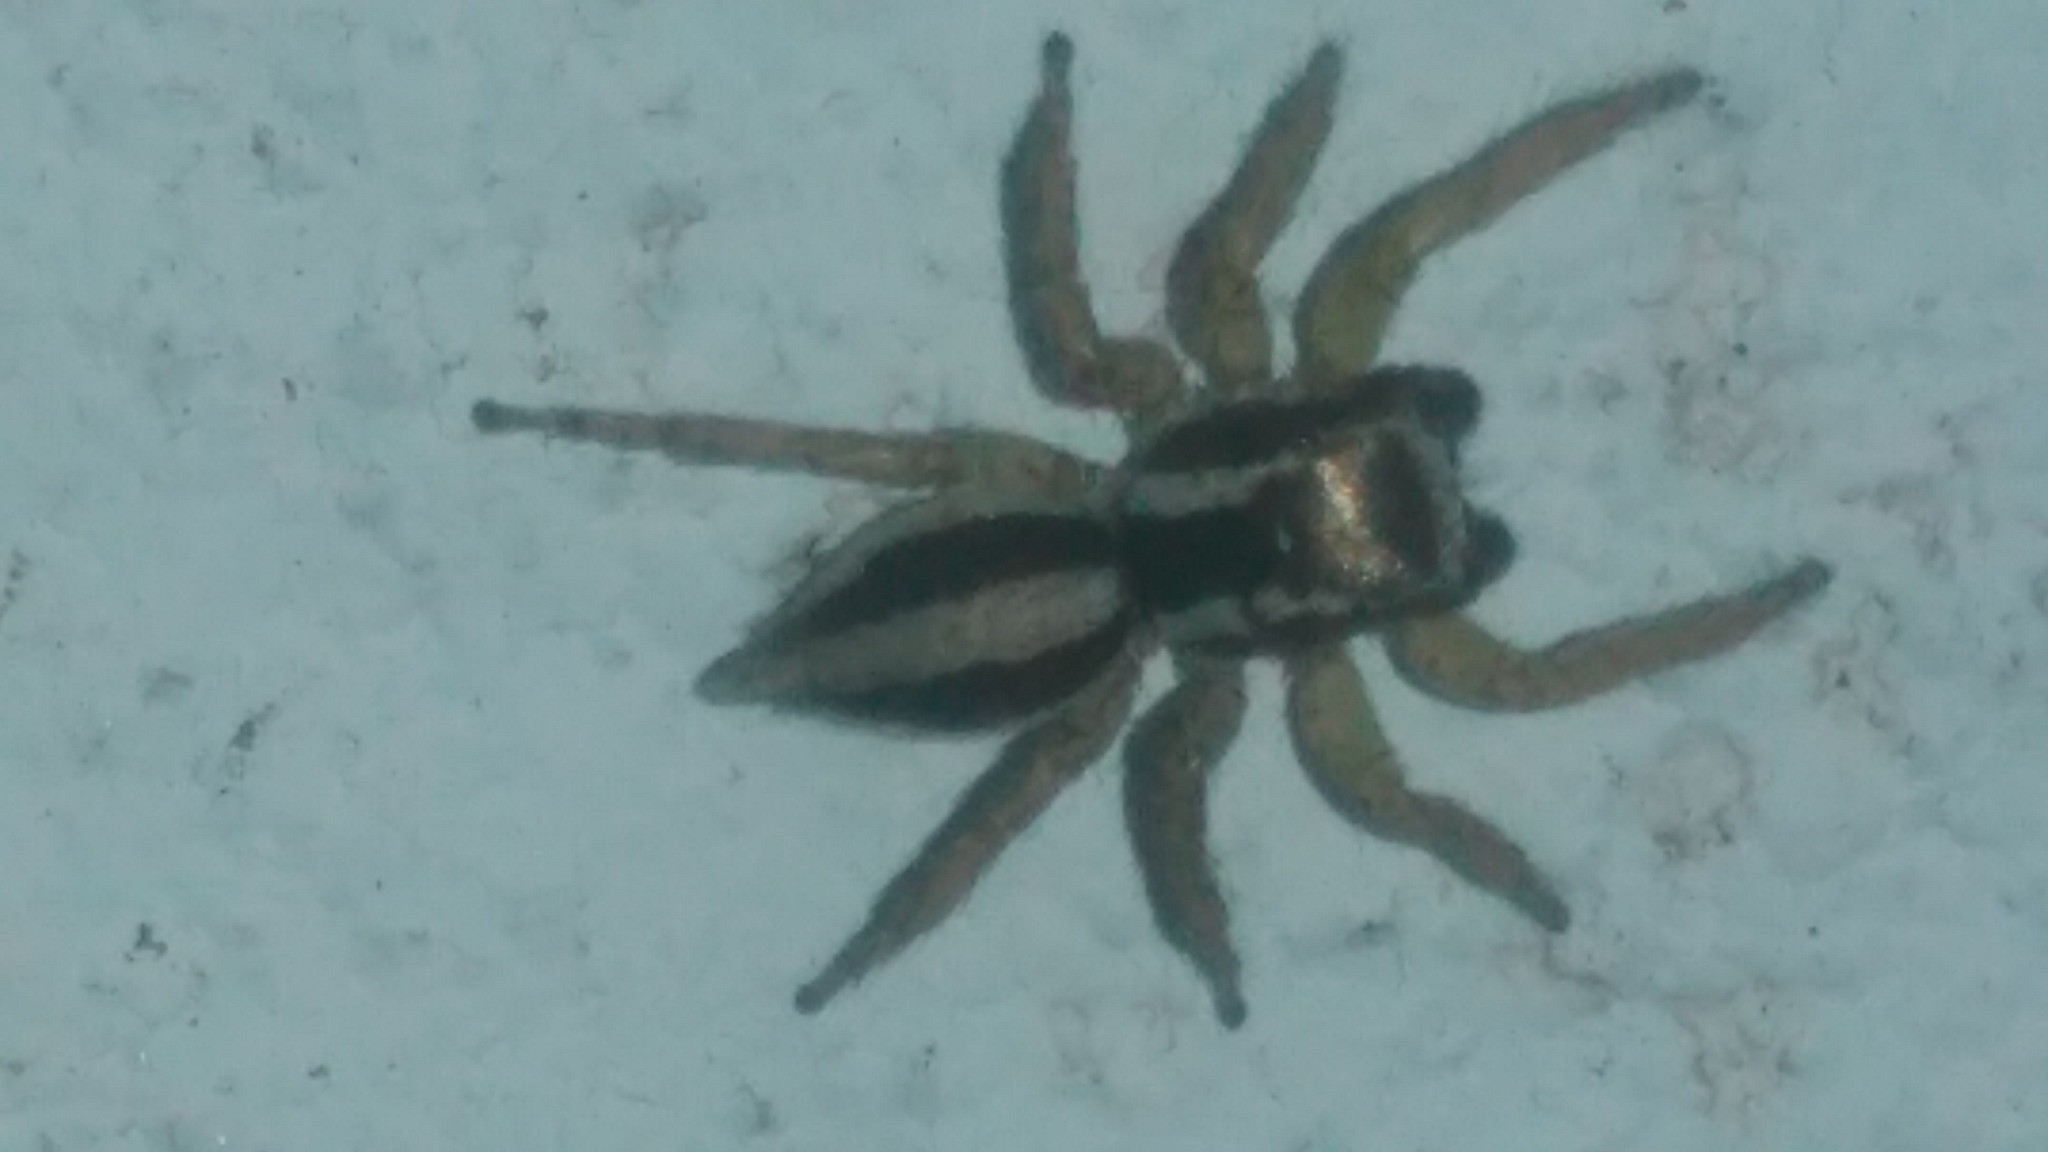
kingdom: Animalia
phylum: Arthropoda
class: Arachnida
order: Araneae
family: Salticidae
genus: Aphirape
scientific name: Aphirape
